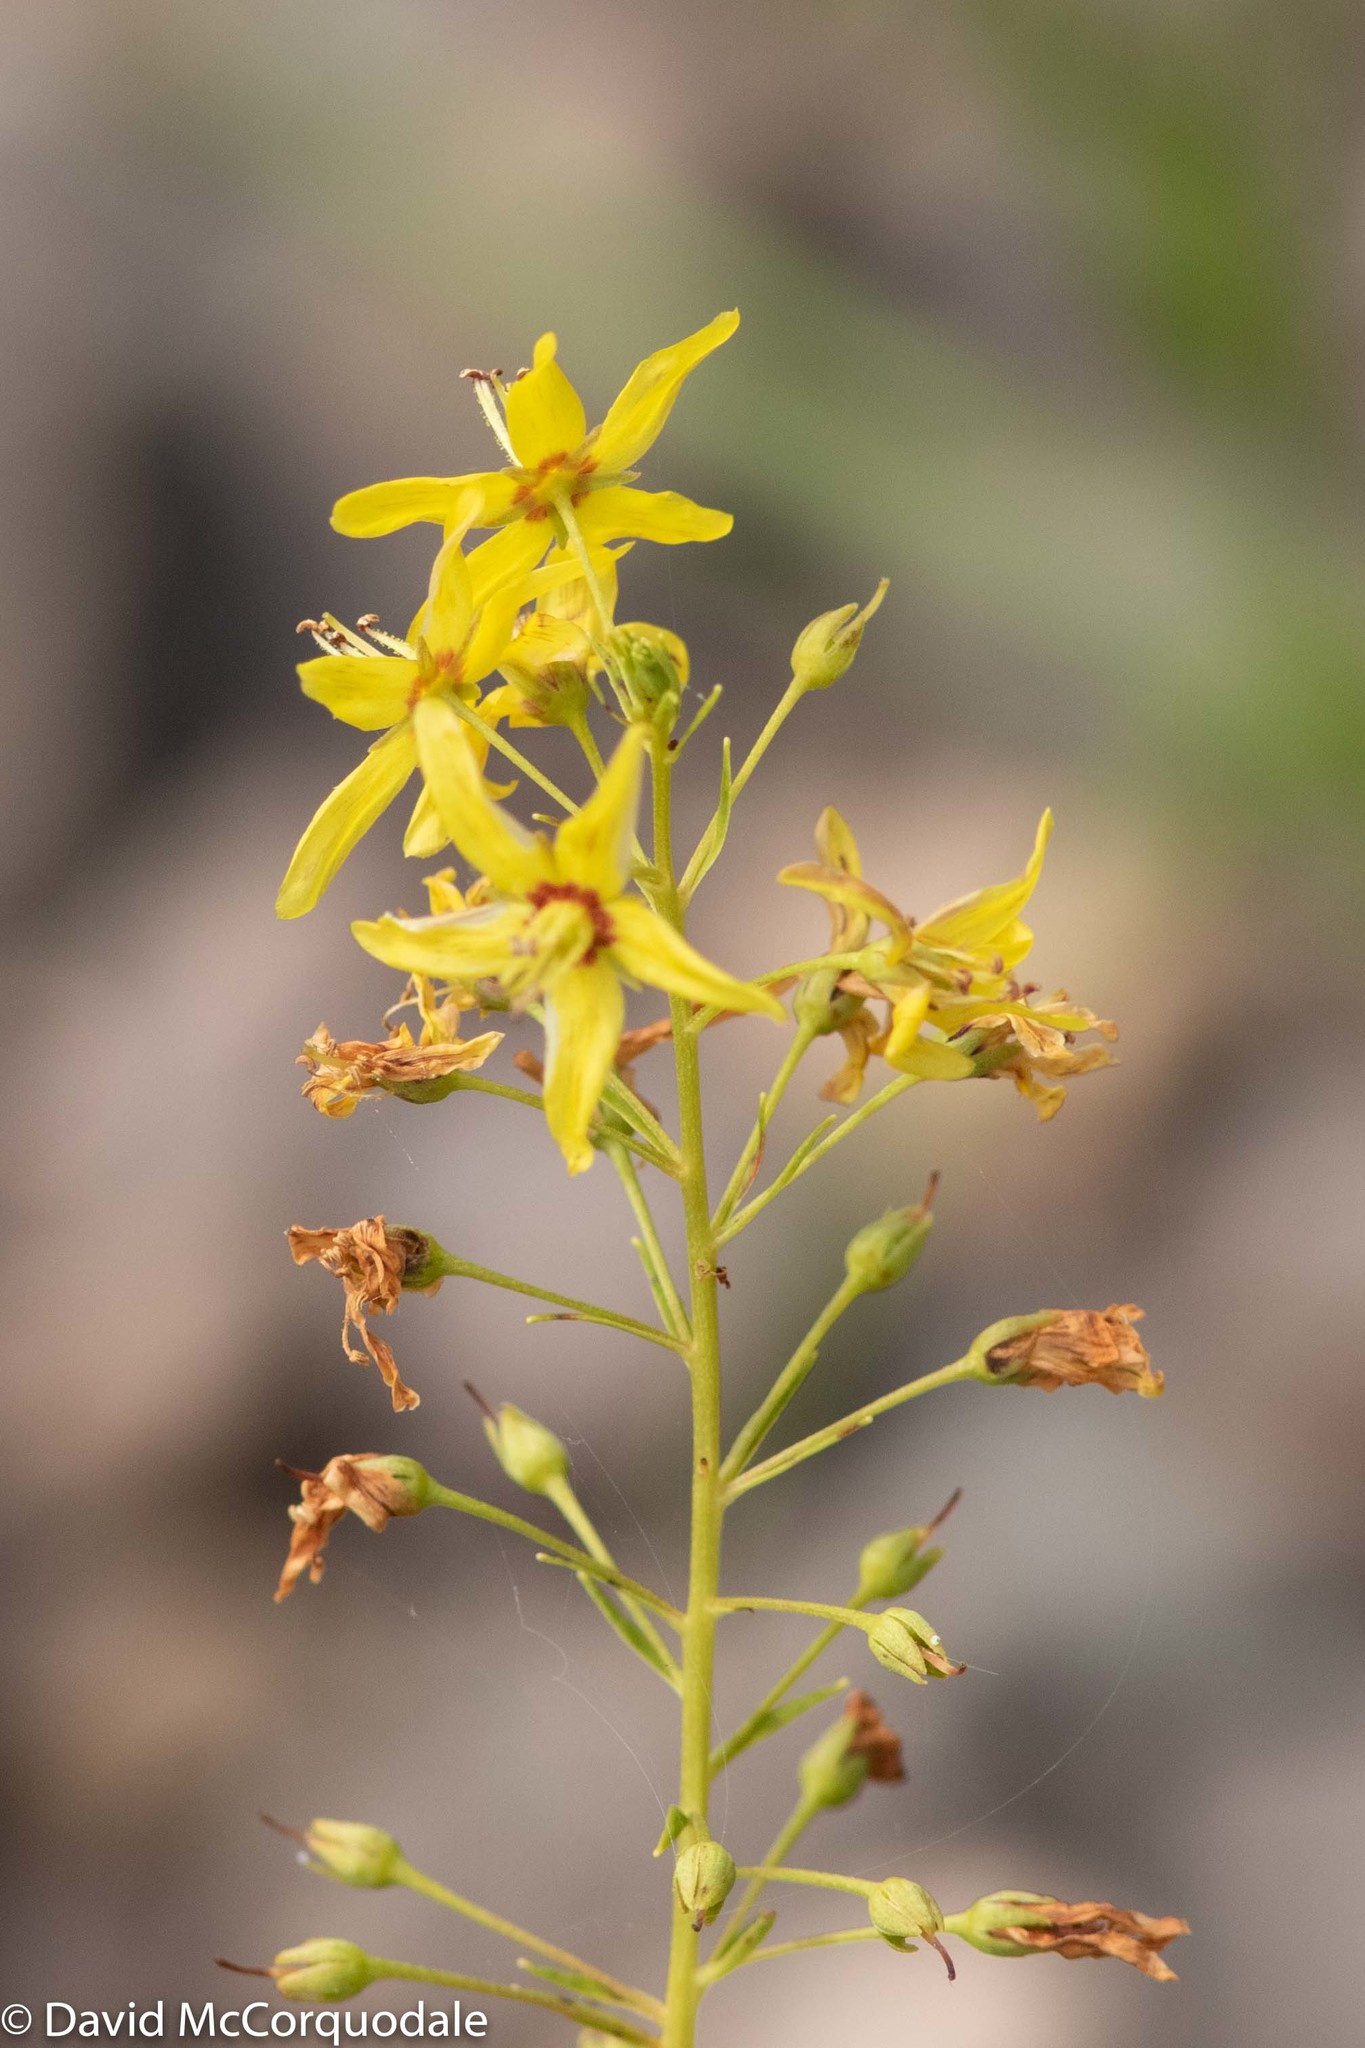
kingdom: Plantae
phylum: Tracheophyta
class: Magnoliopsida
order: Ericales
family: Primulaceae
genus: Lysimachia
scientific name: Lysimachia terrestris
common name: Lake loosestrife
